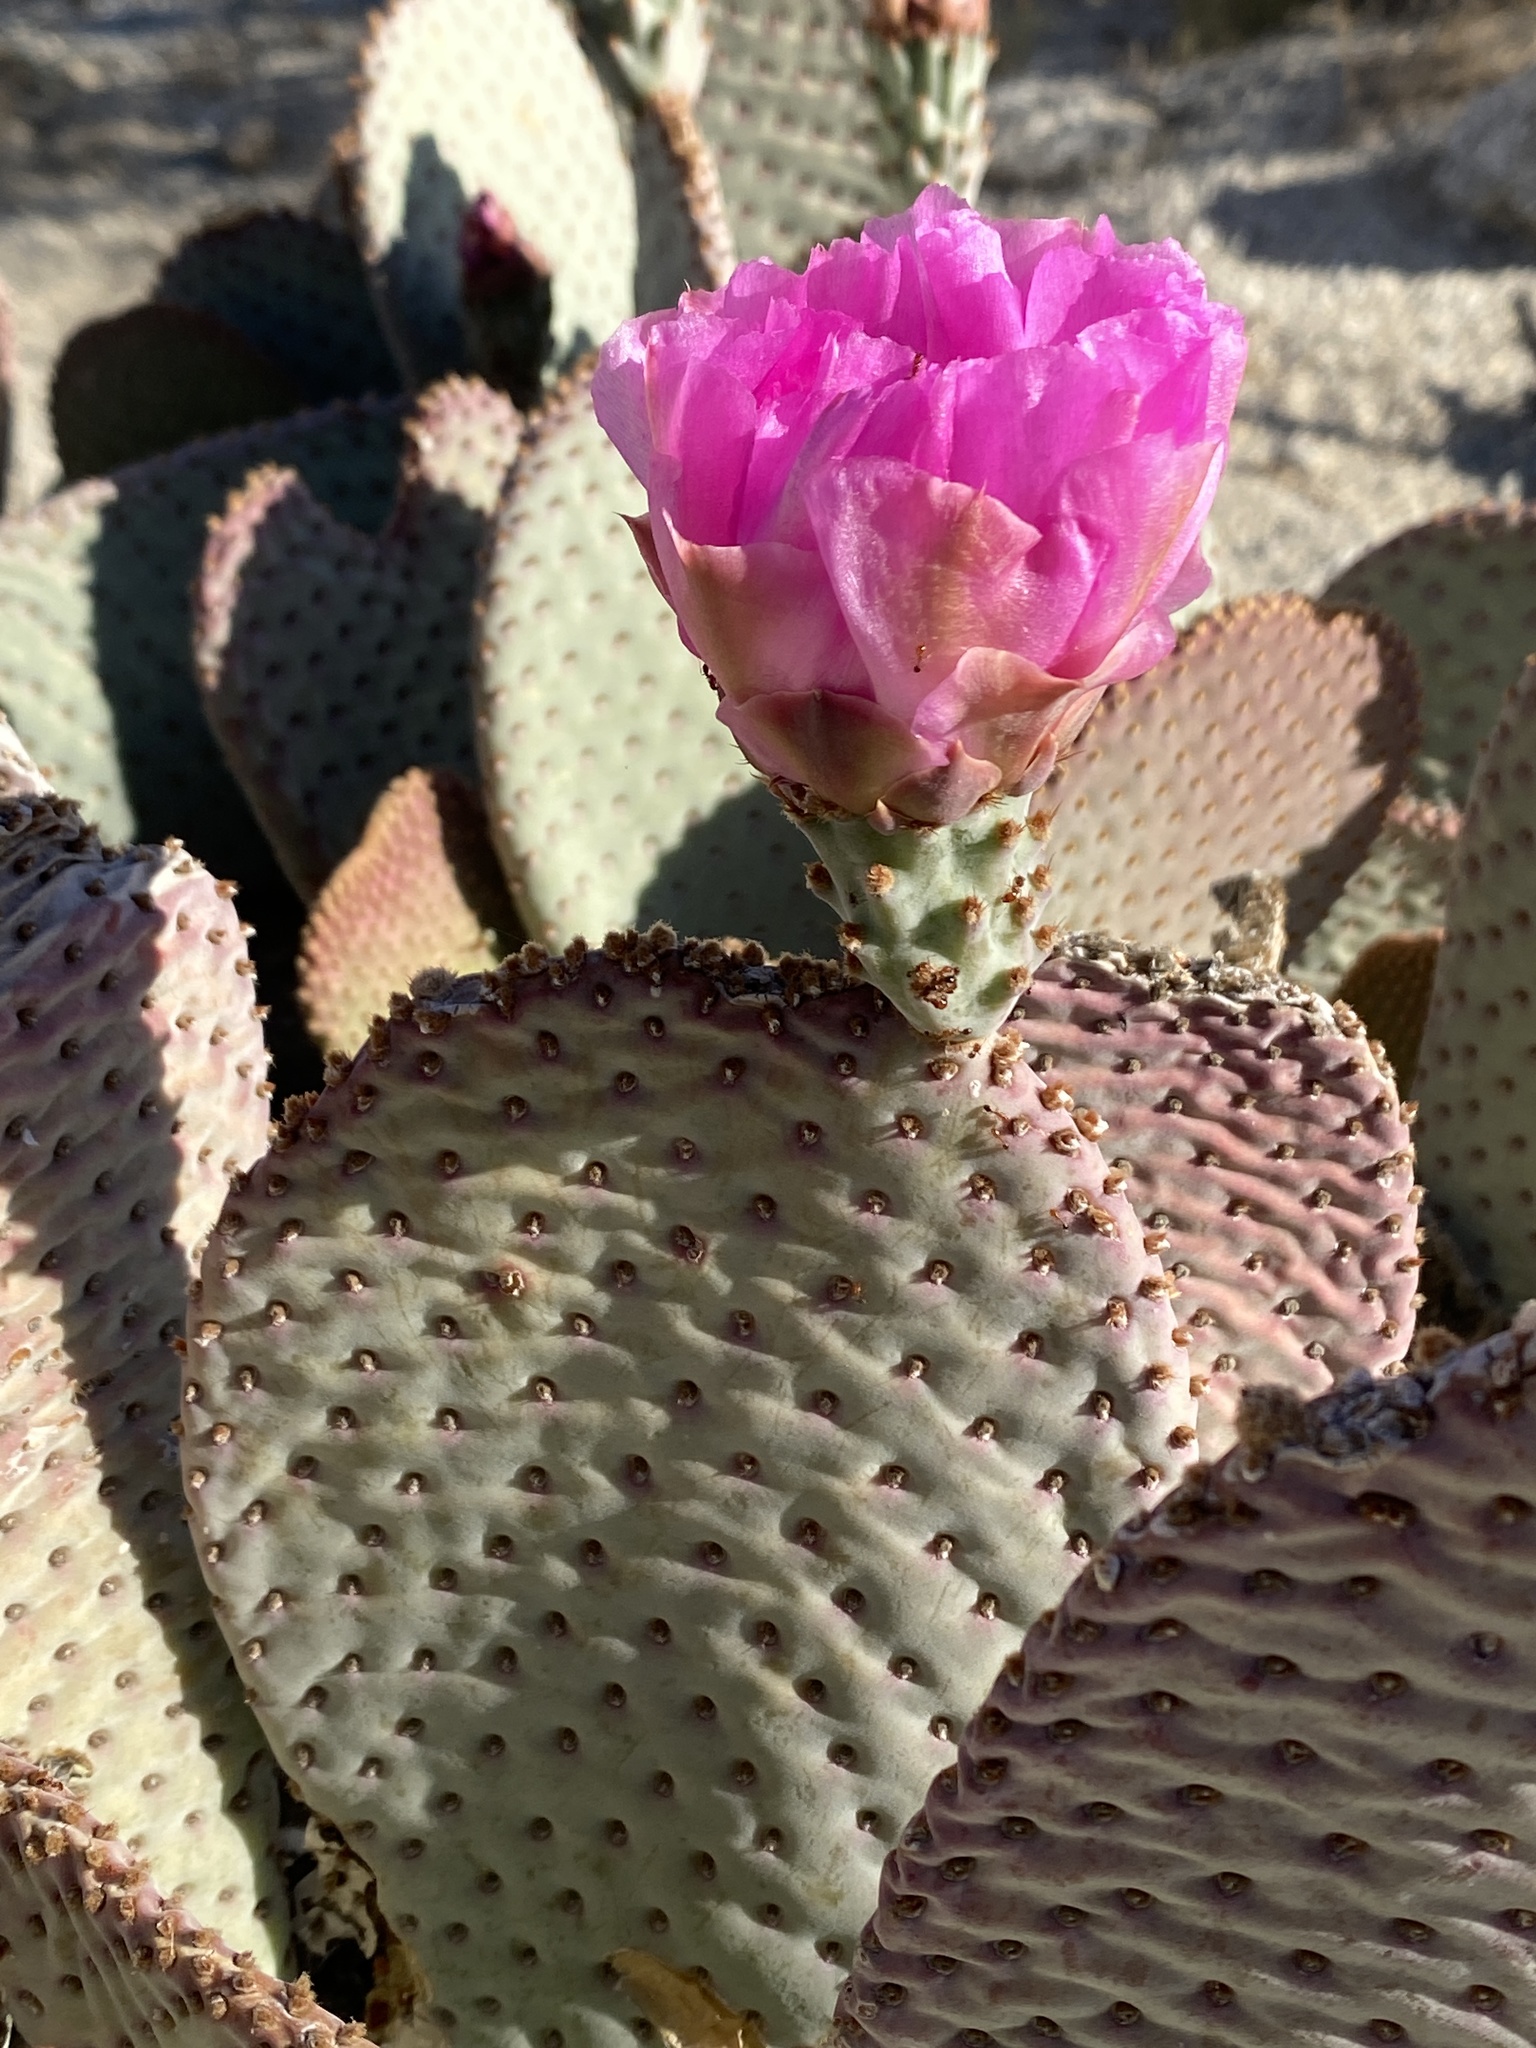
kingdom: Plantae
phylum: Tracheophyta
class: Magnoliopsida
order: Caryophyllales
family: Cactaceae
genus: Opuntia
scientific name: Opuntia basilaris
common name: Beavertail prickly-pear
